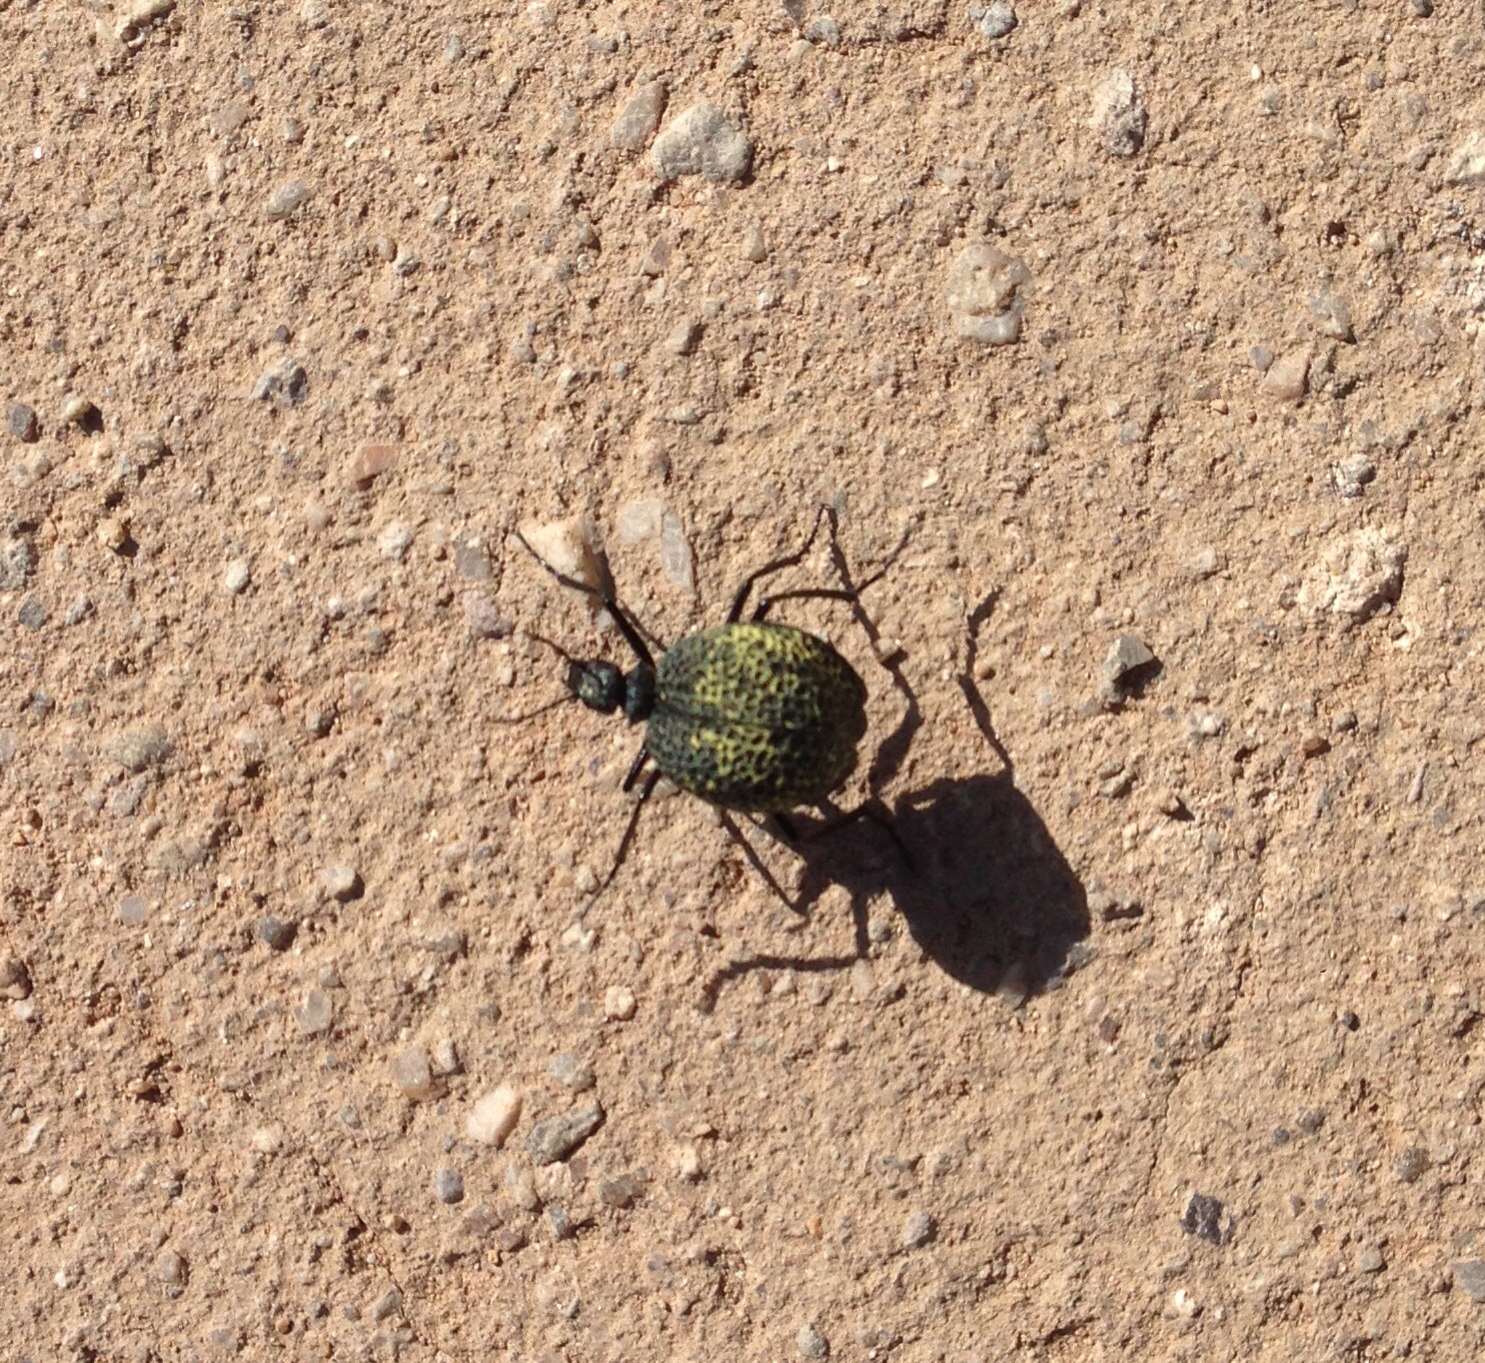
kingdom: Animalia
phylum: Arthropoda
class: Insecta
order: Coleoptera
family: Meloidae
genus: Cysteodemus
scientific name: Cysteodemus armatus
